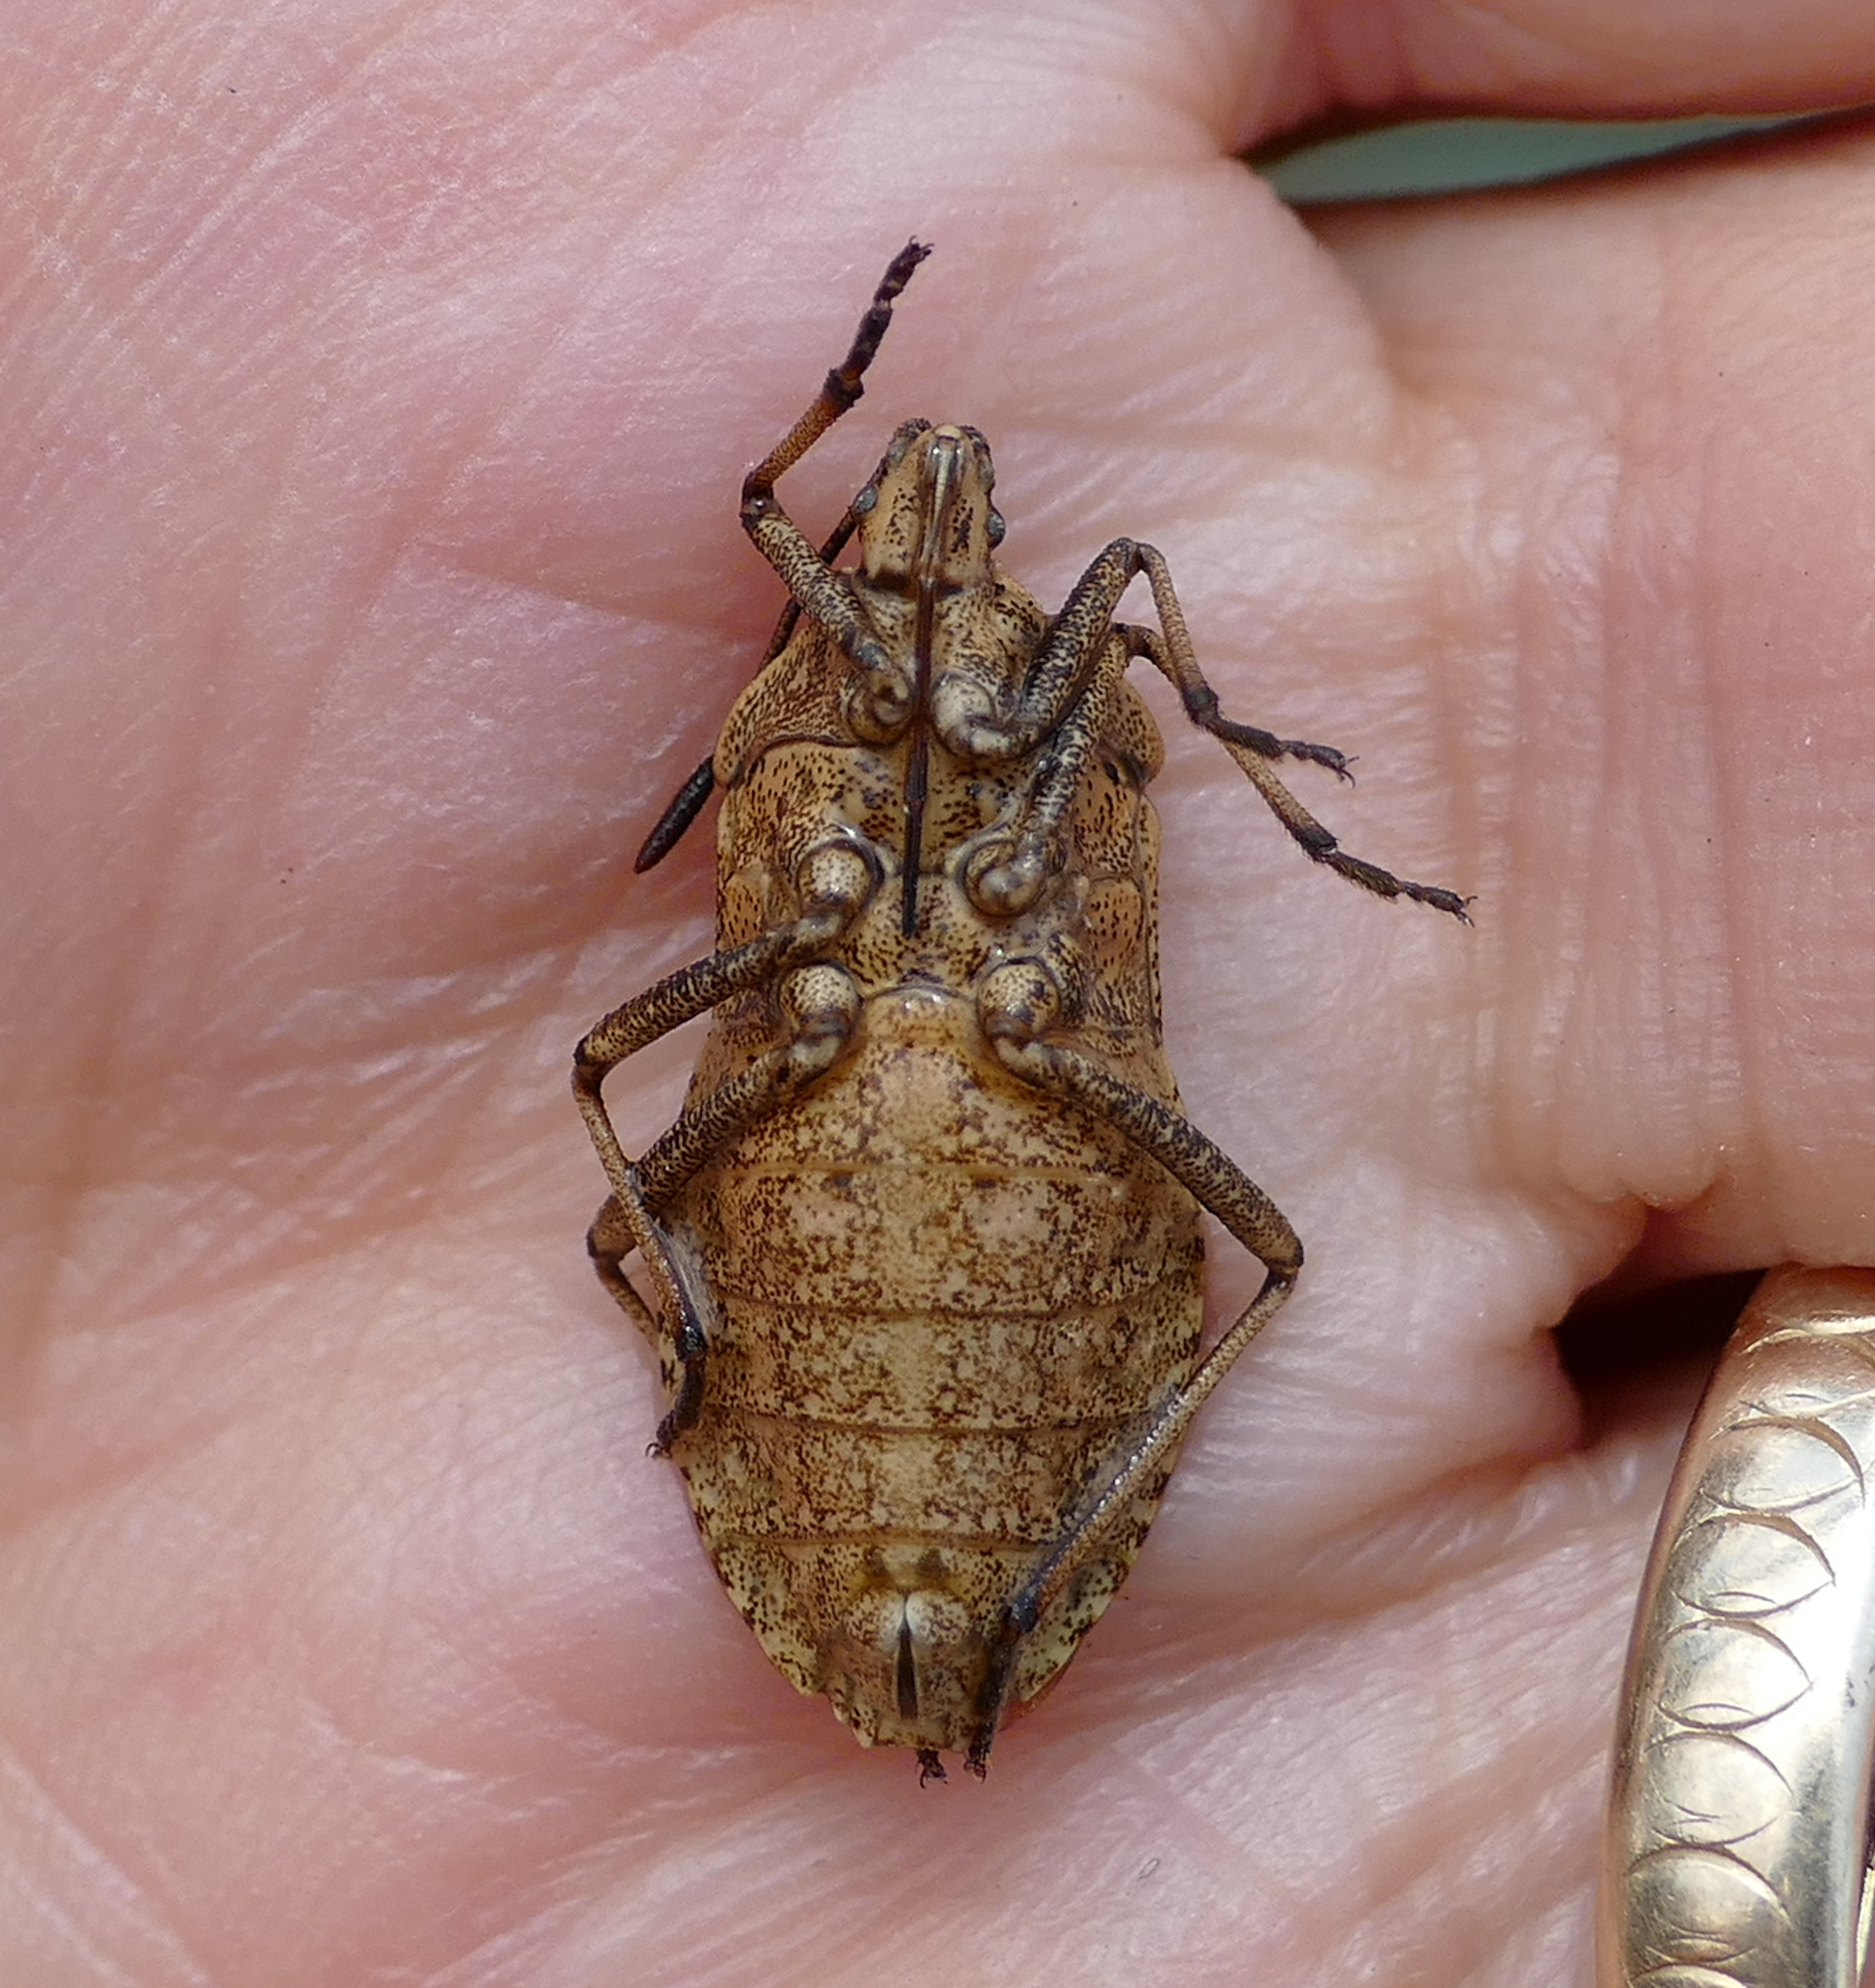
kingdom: Animalia
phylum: Arthropoda
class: Insecta
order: Hemiptera
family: Coreidae
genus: Anasa
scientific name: Anasa tristis
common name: Squash bug
